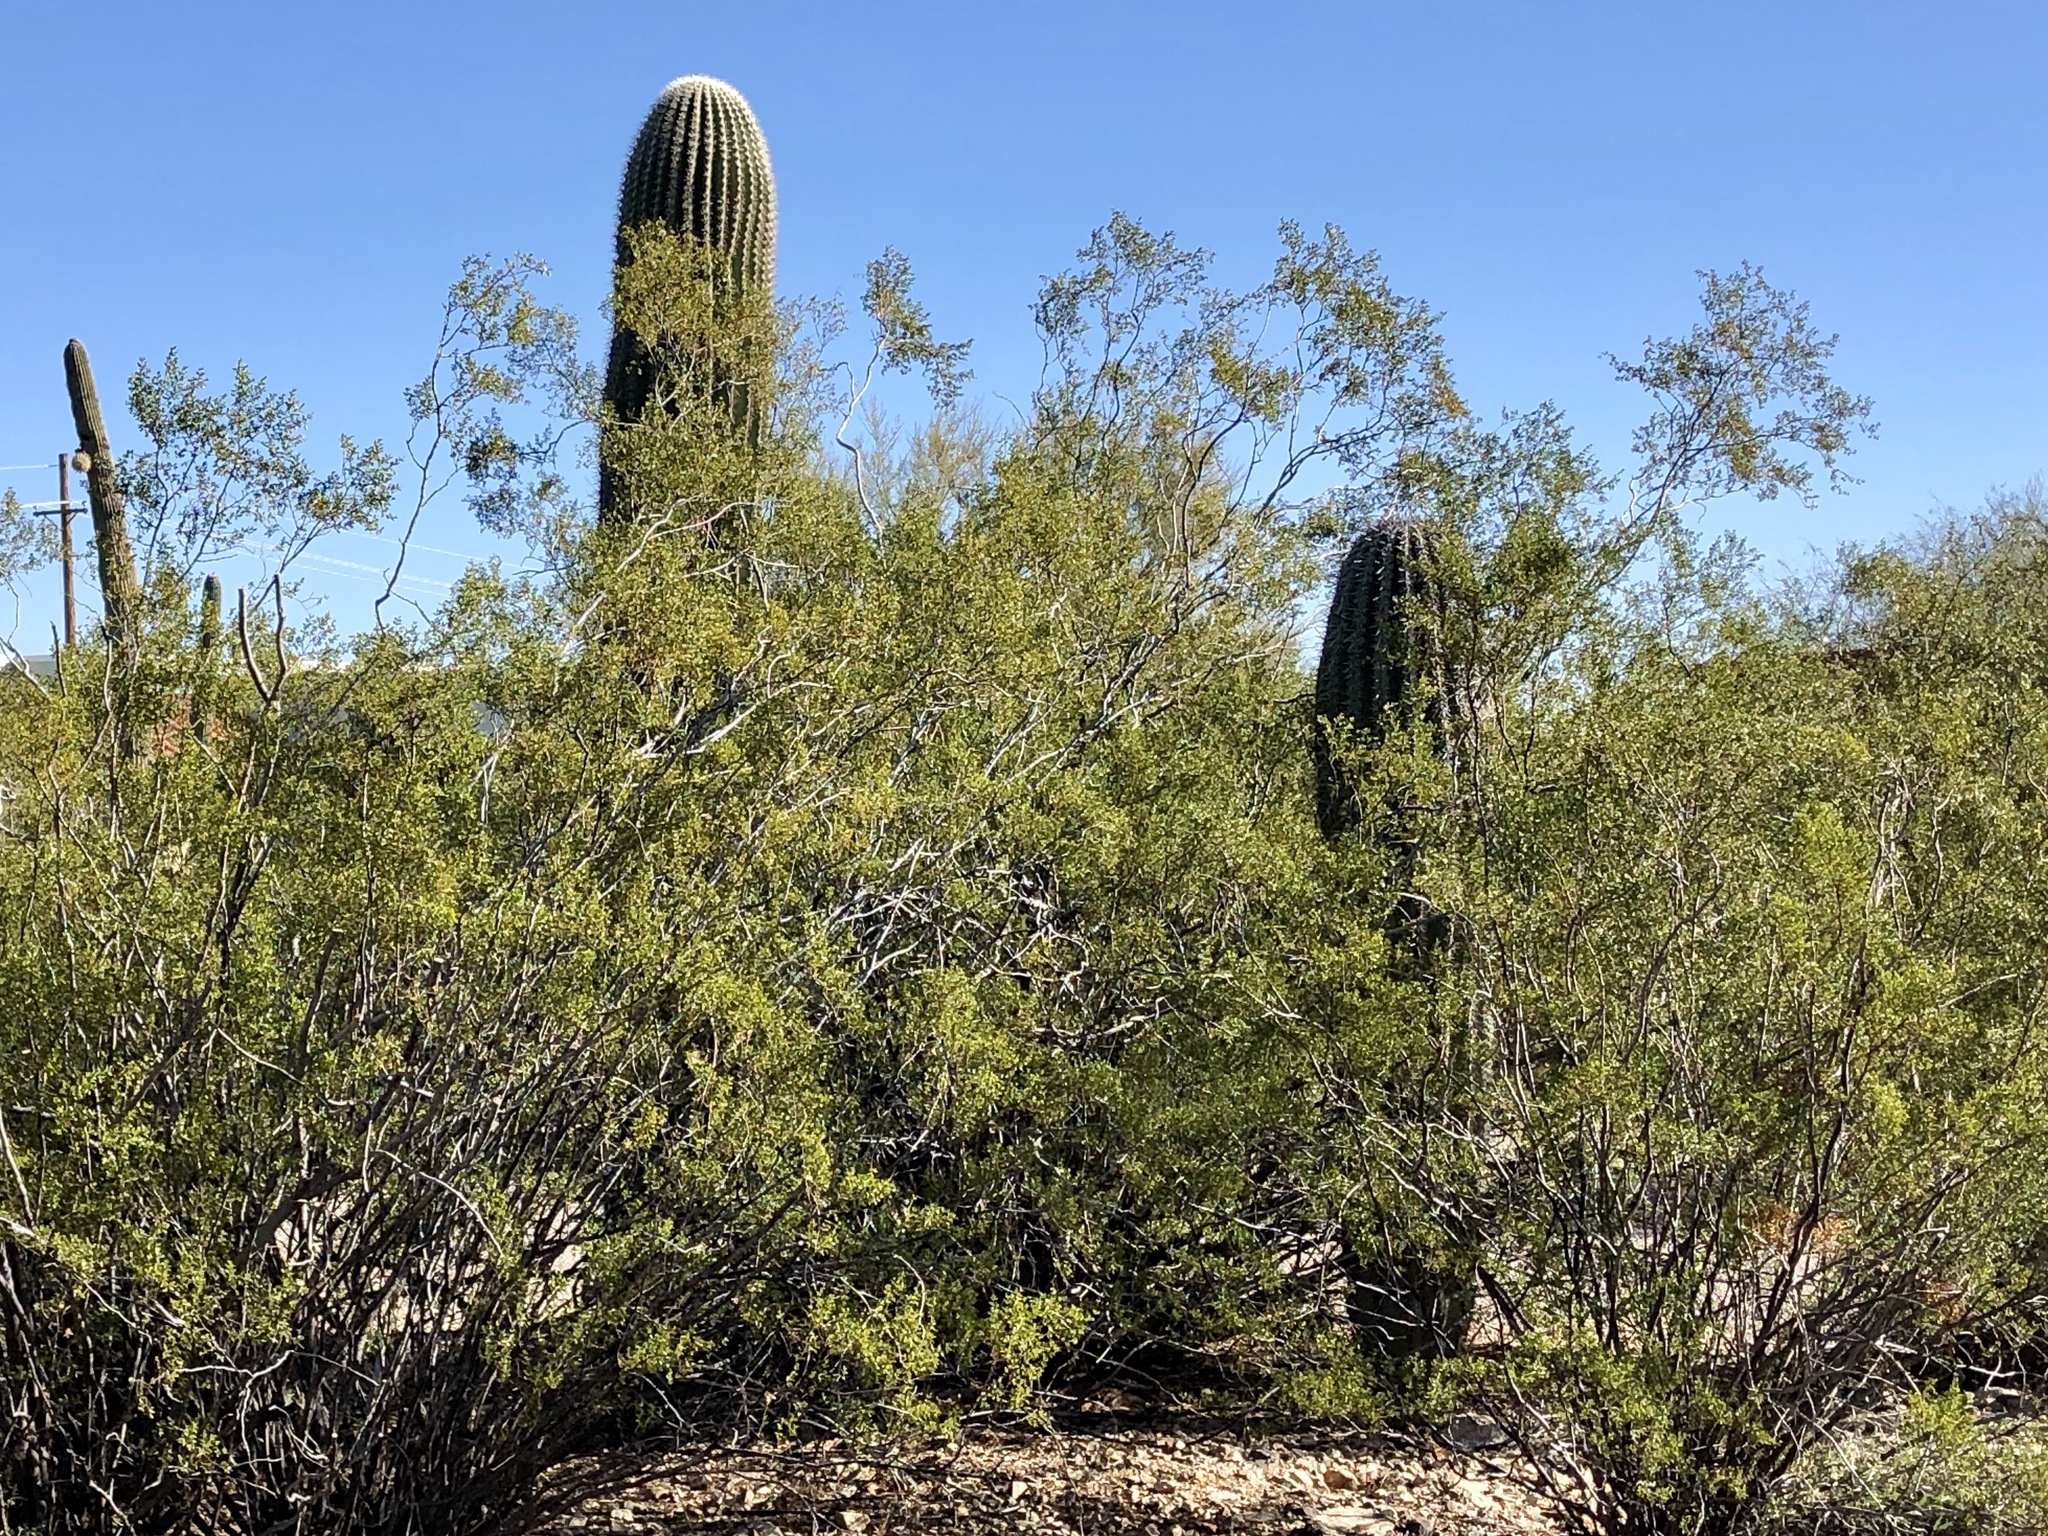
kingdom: Plantae
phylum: Tracheophyta
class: Magnoliopsida
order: Zygophyllales
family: Zygophyllaceae
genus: Larrea
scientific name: Larrea tridentata
